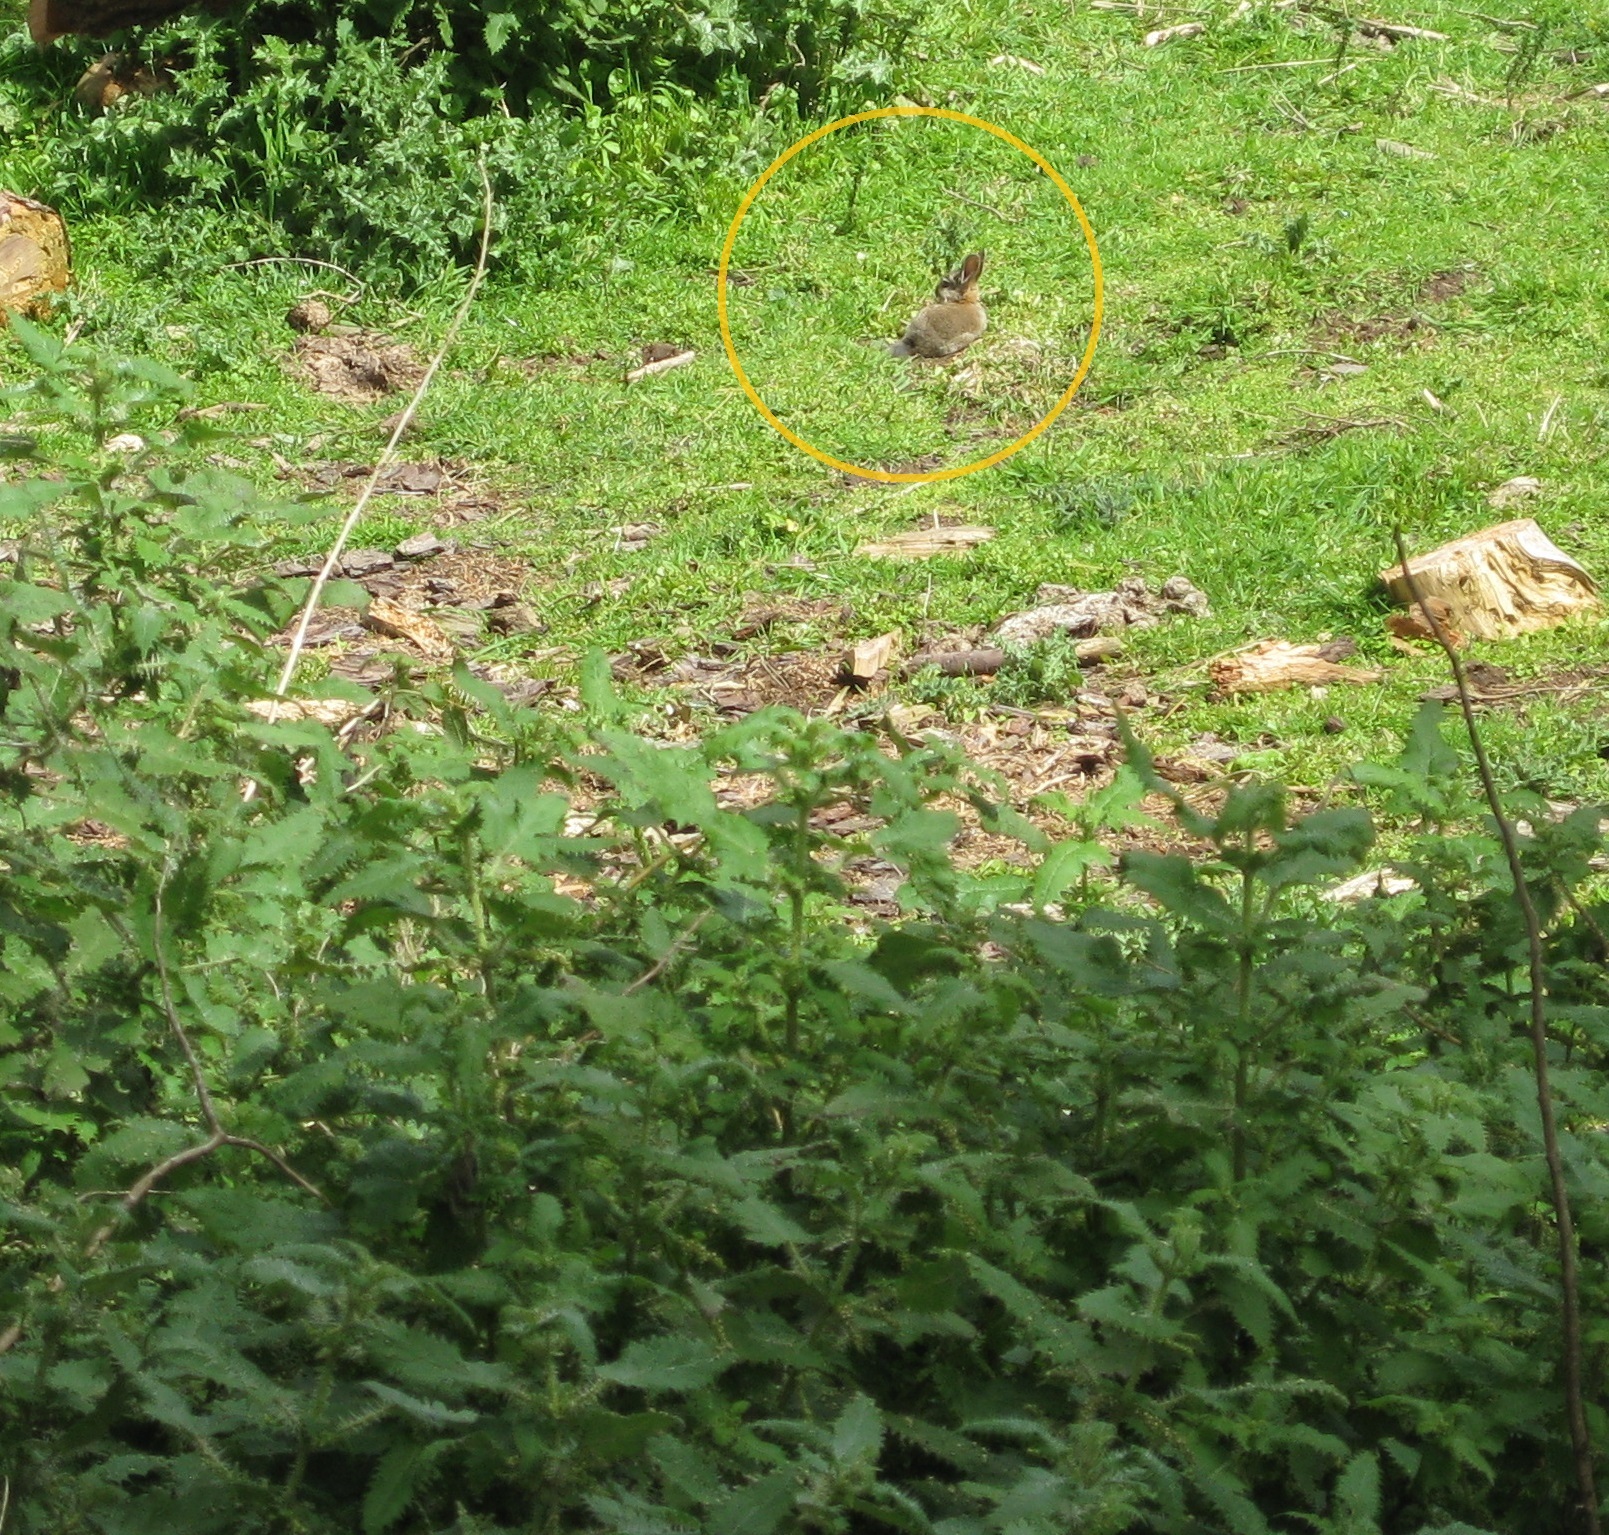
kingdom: Animalia
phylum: Chordata
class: Mammalia
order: Lagomorpha
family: Leporidae
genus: Oryctolagus
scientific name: Oryctolagus cuniculus
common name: European rabbit
